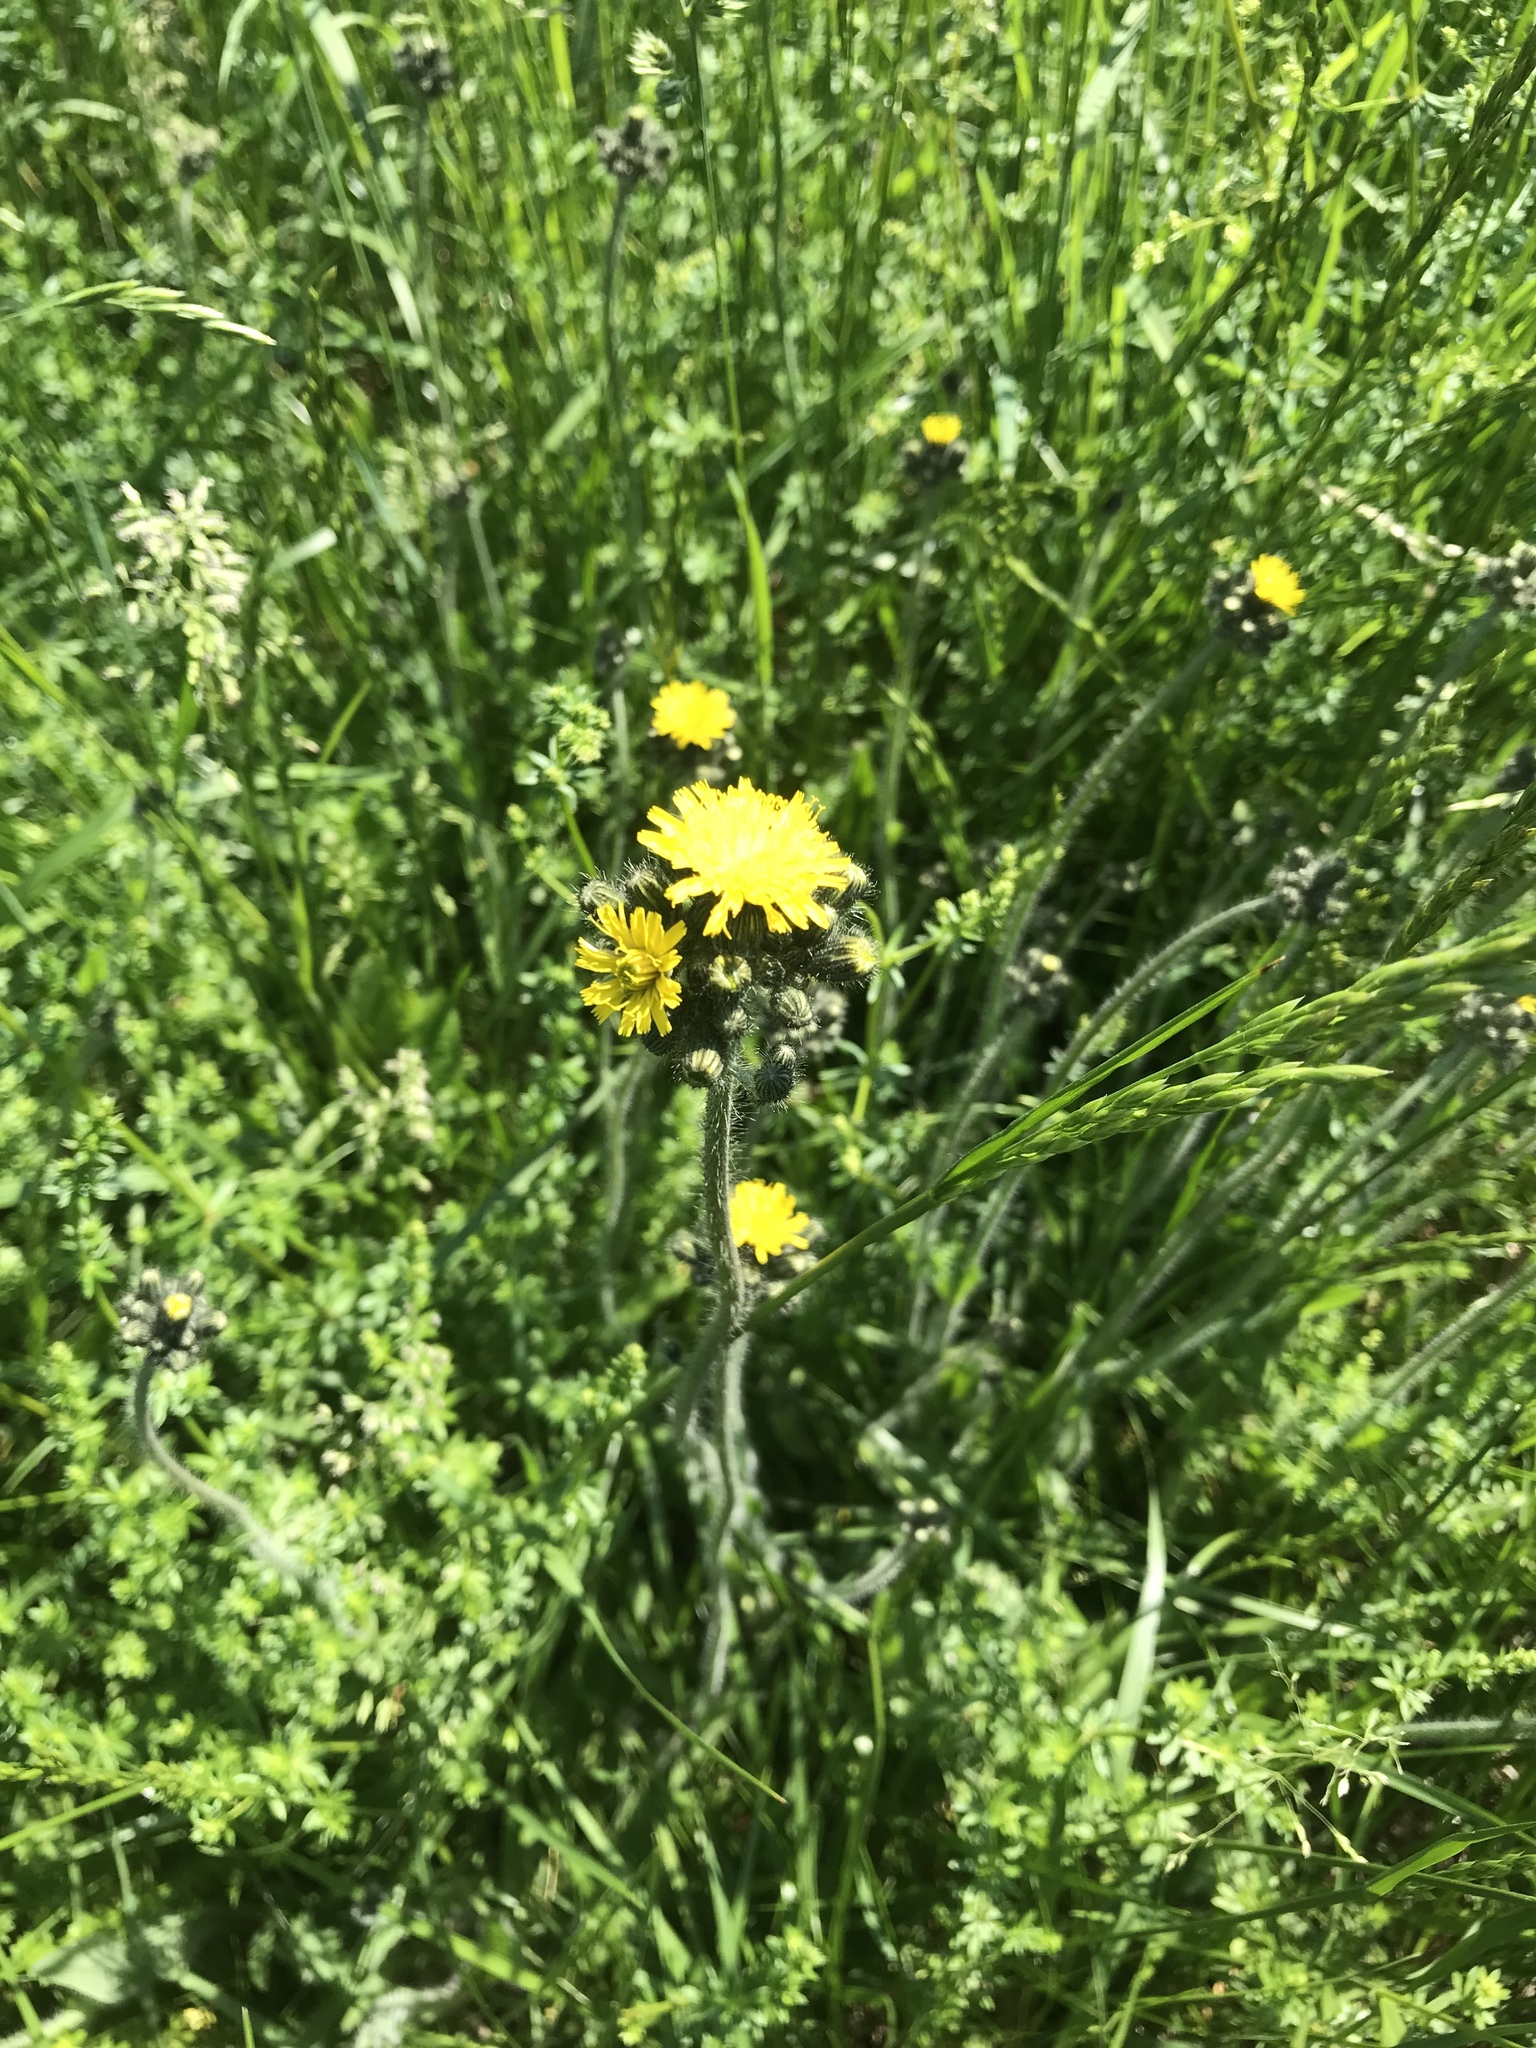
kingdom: Plantae
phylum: Tracheophyta
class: Magnoliopsida
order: Asterales
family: Asteraceae
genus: Pilosella
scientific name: Pilosella caespitosa
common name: Yellow fox-and-cubs
